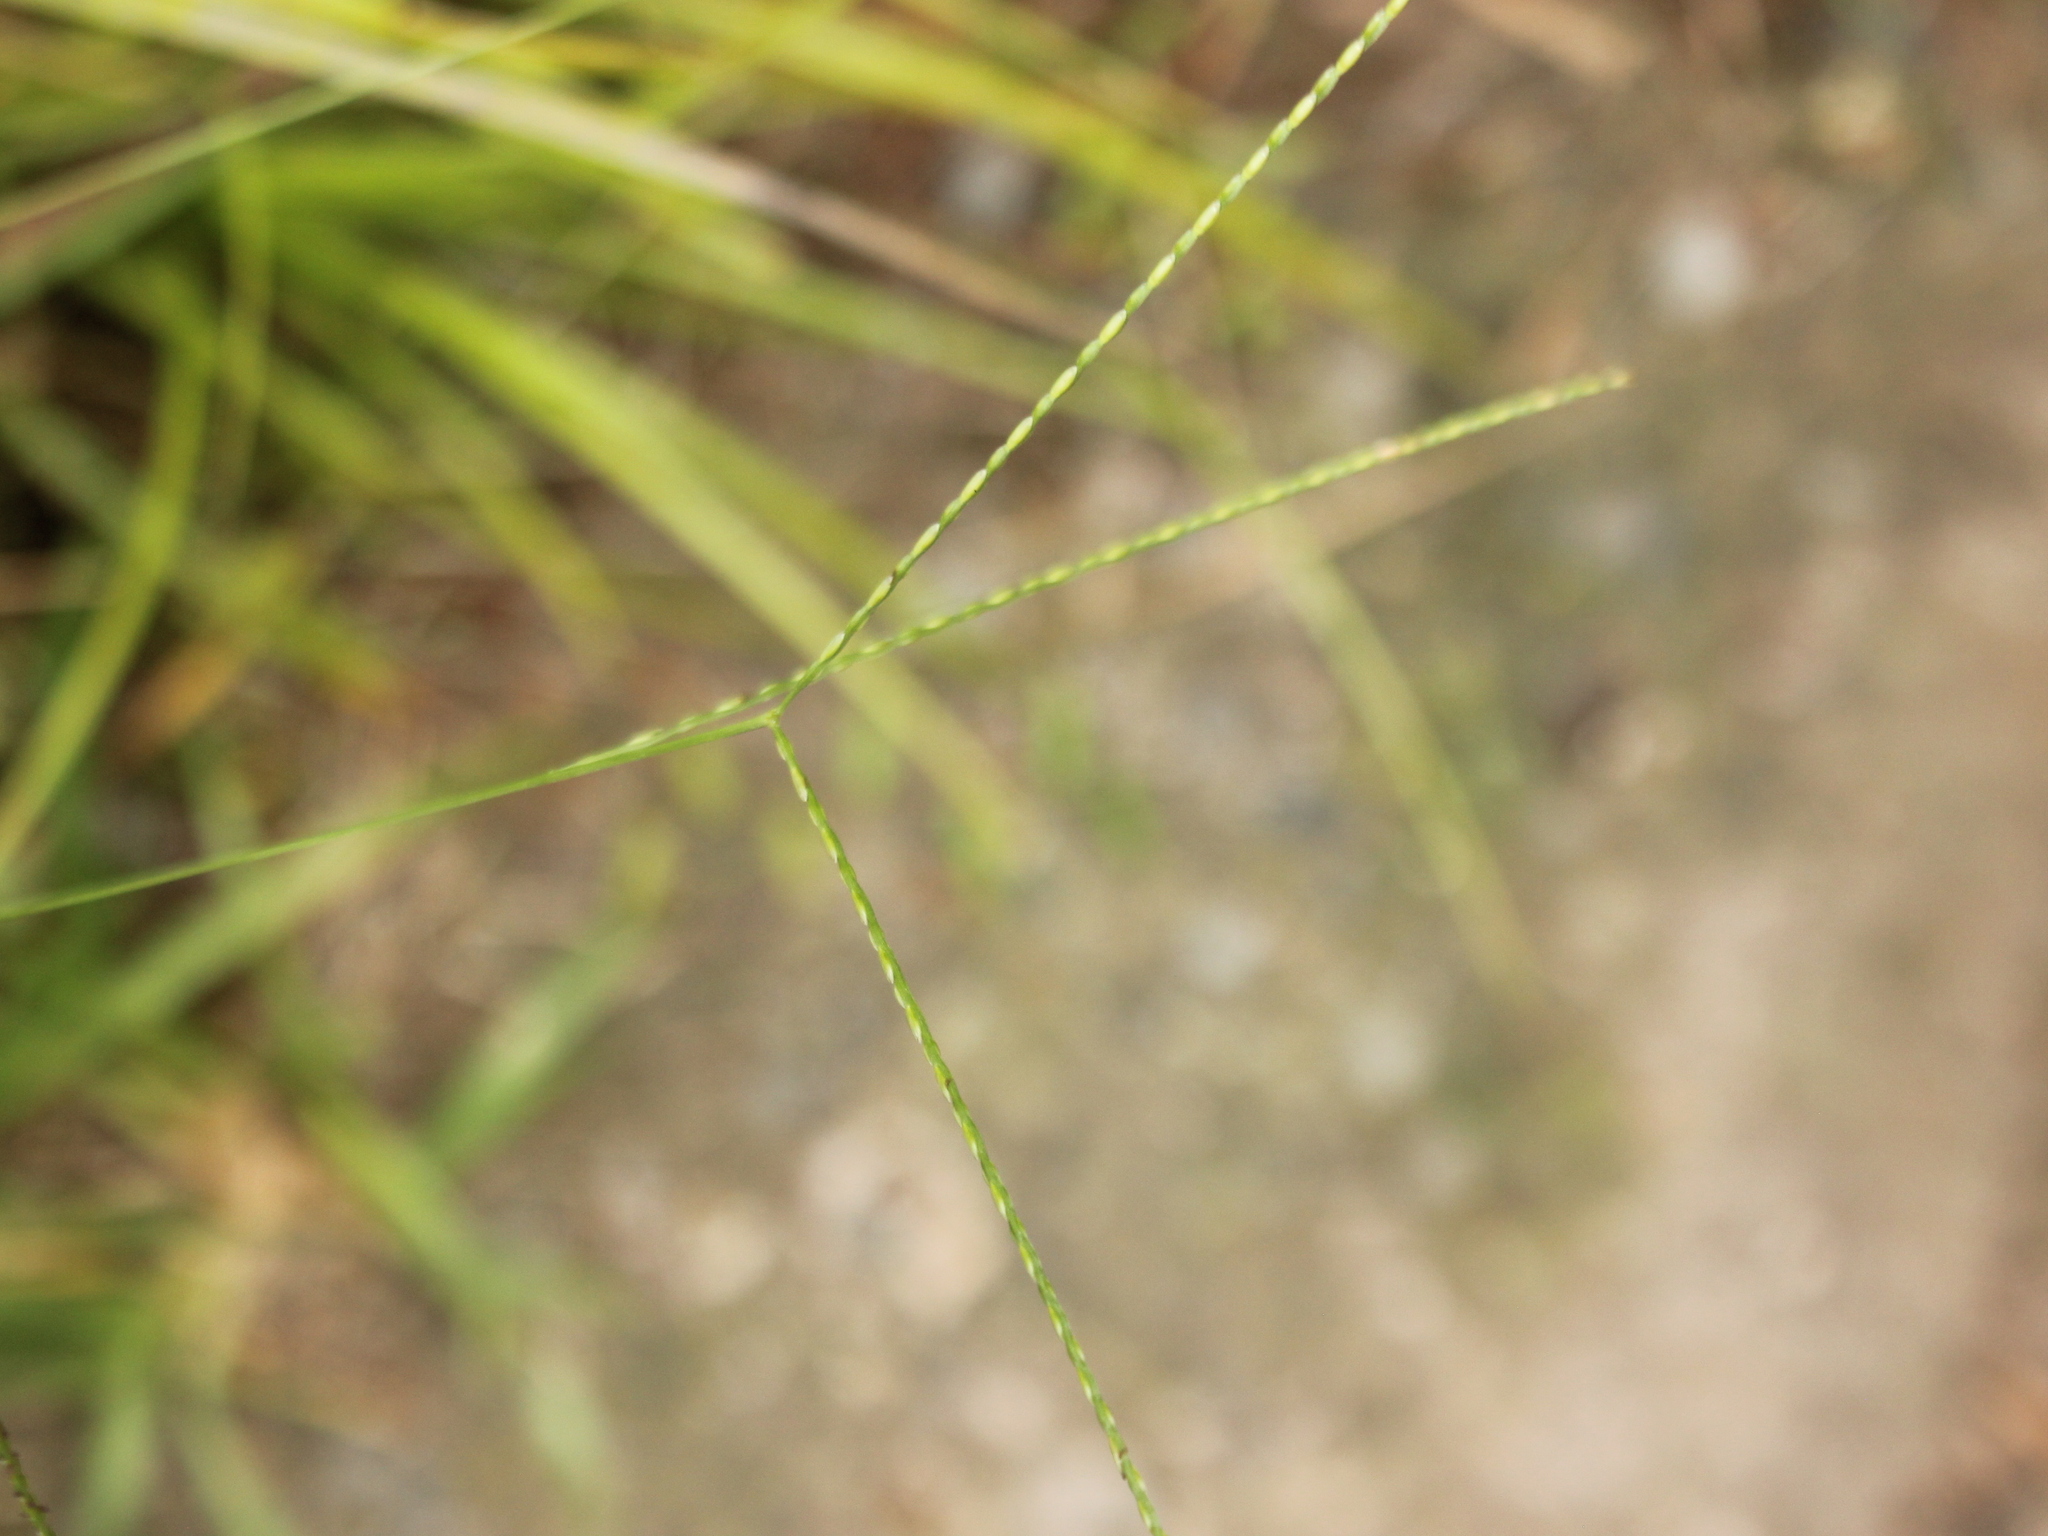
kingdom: Plantae
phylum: Tracheophyta
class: Liliopsida
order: Poales
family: Poaceae
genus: Axonopus
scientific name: Axonopus fissifolius
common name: Common carpetgrass
